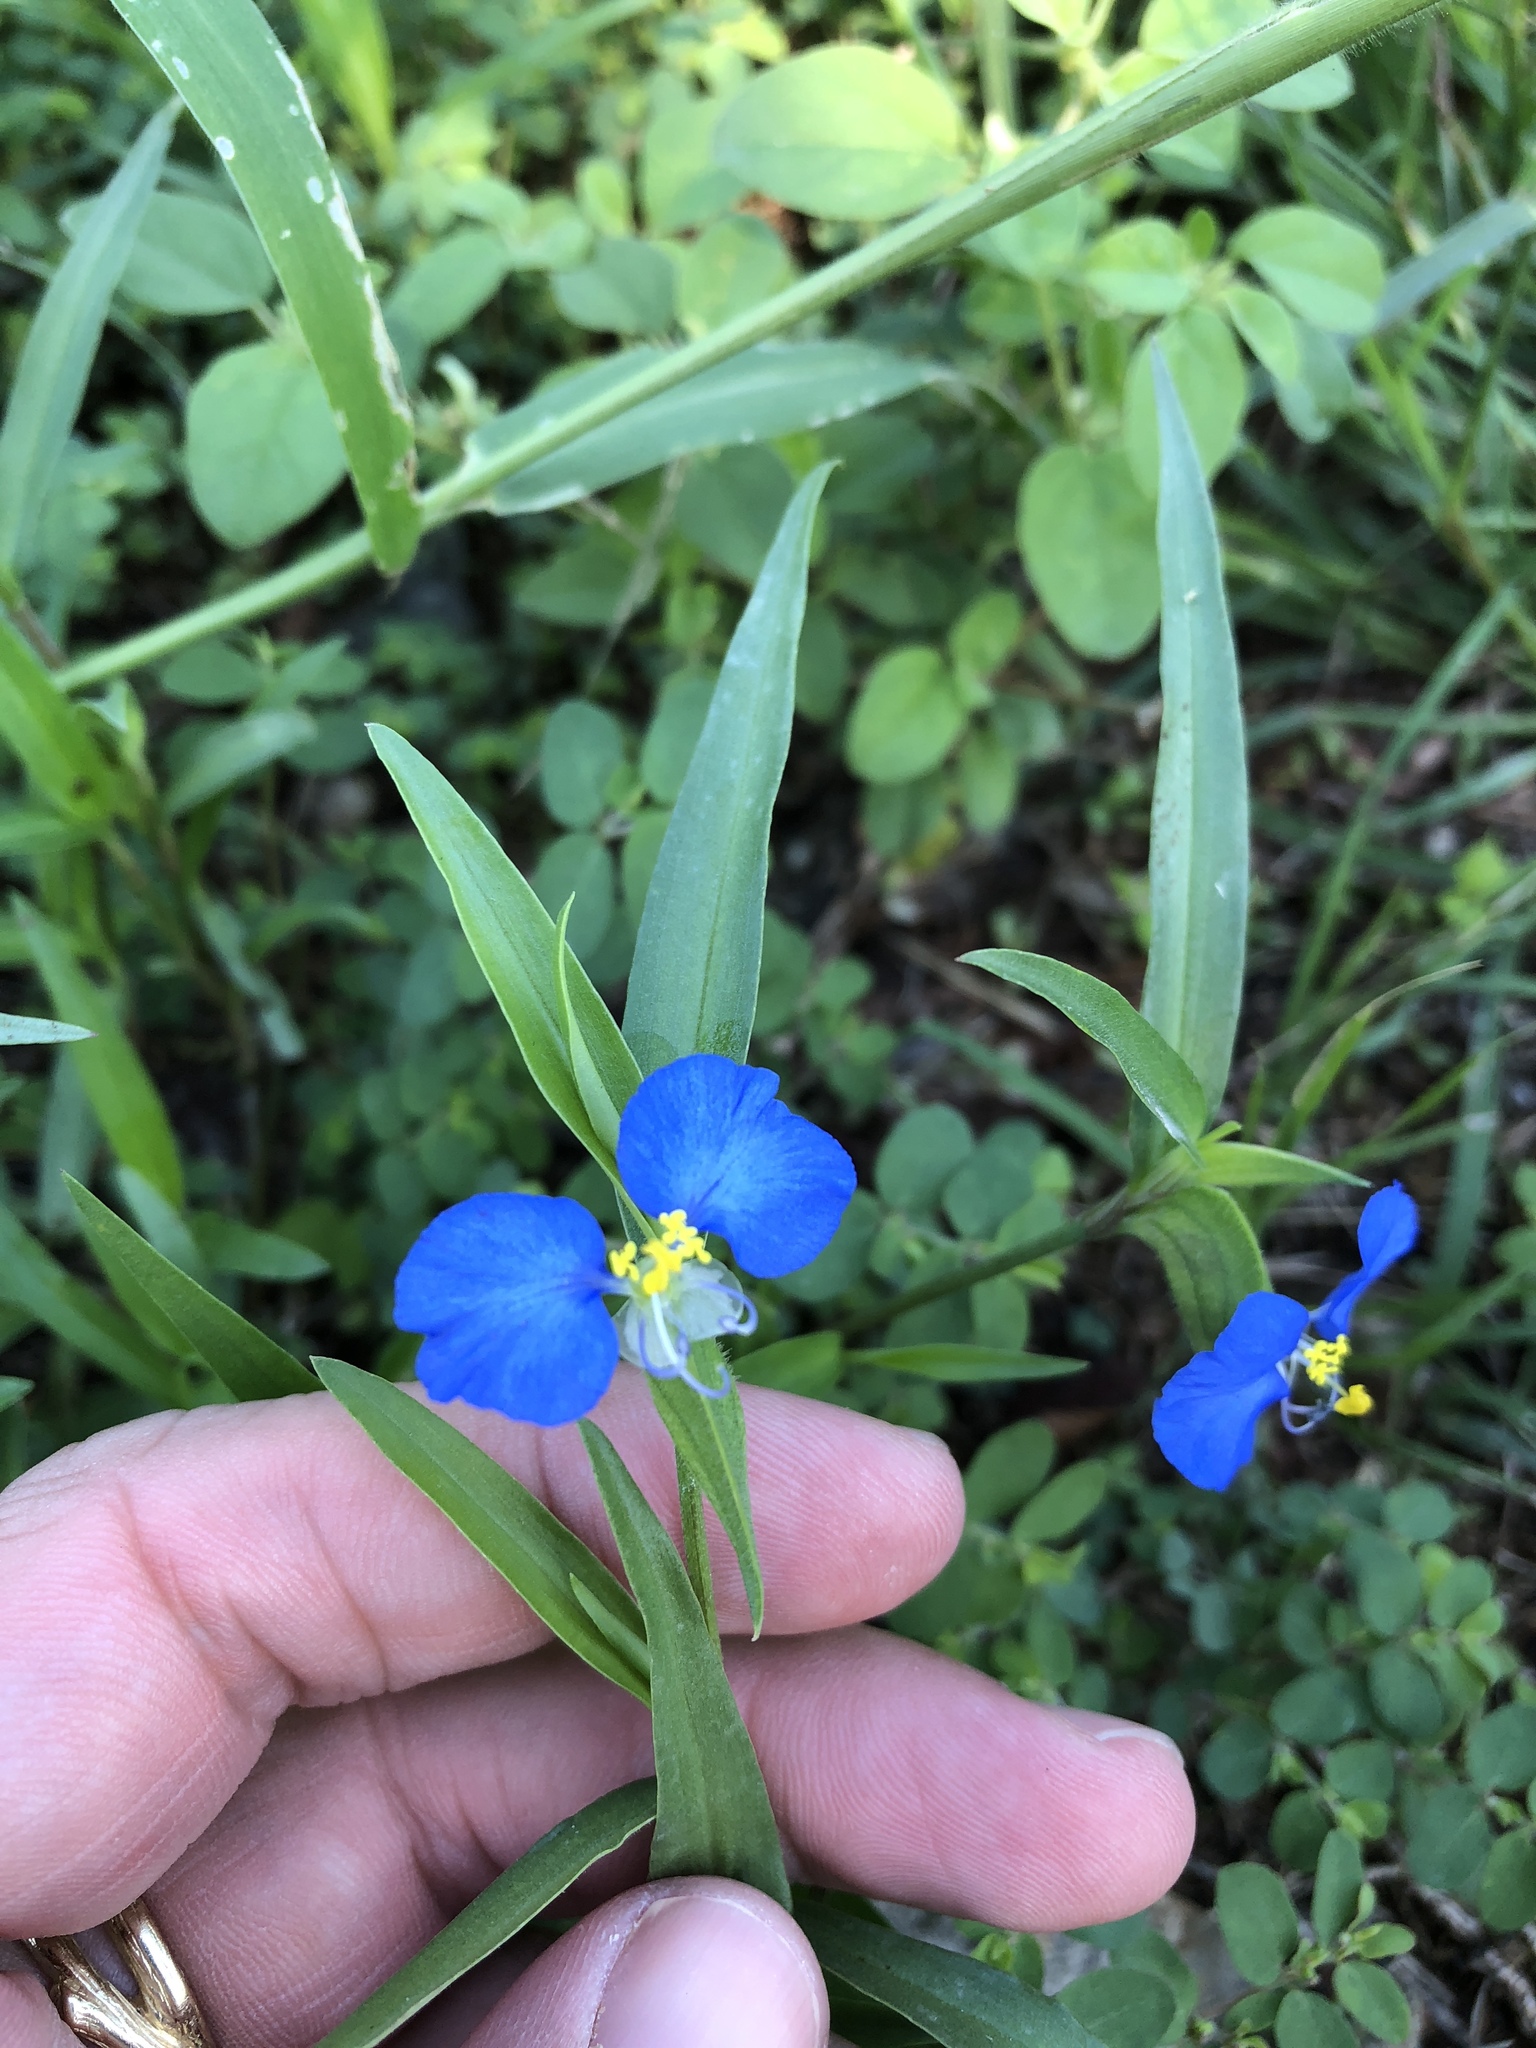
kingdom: Plantae
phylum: Tracheophyta
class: Liliopsida
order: Commelinales
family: Commelinaceae
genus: Commelina
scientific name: Commelina erecta
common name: Blousel blommetjie
